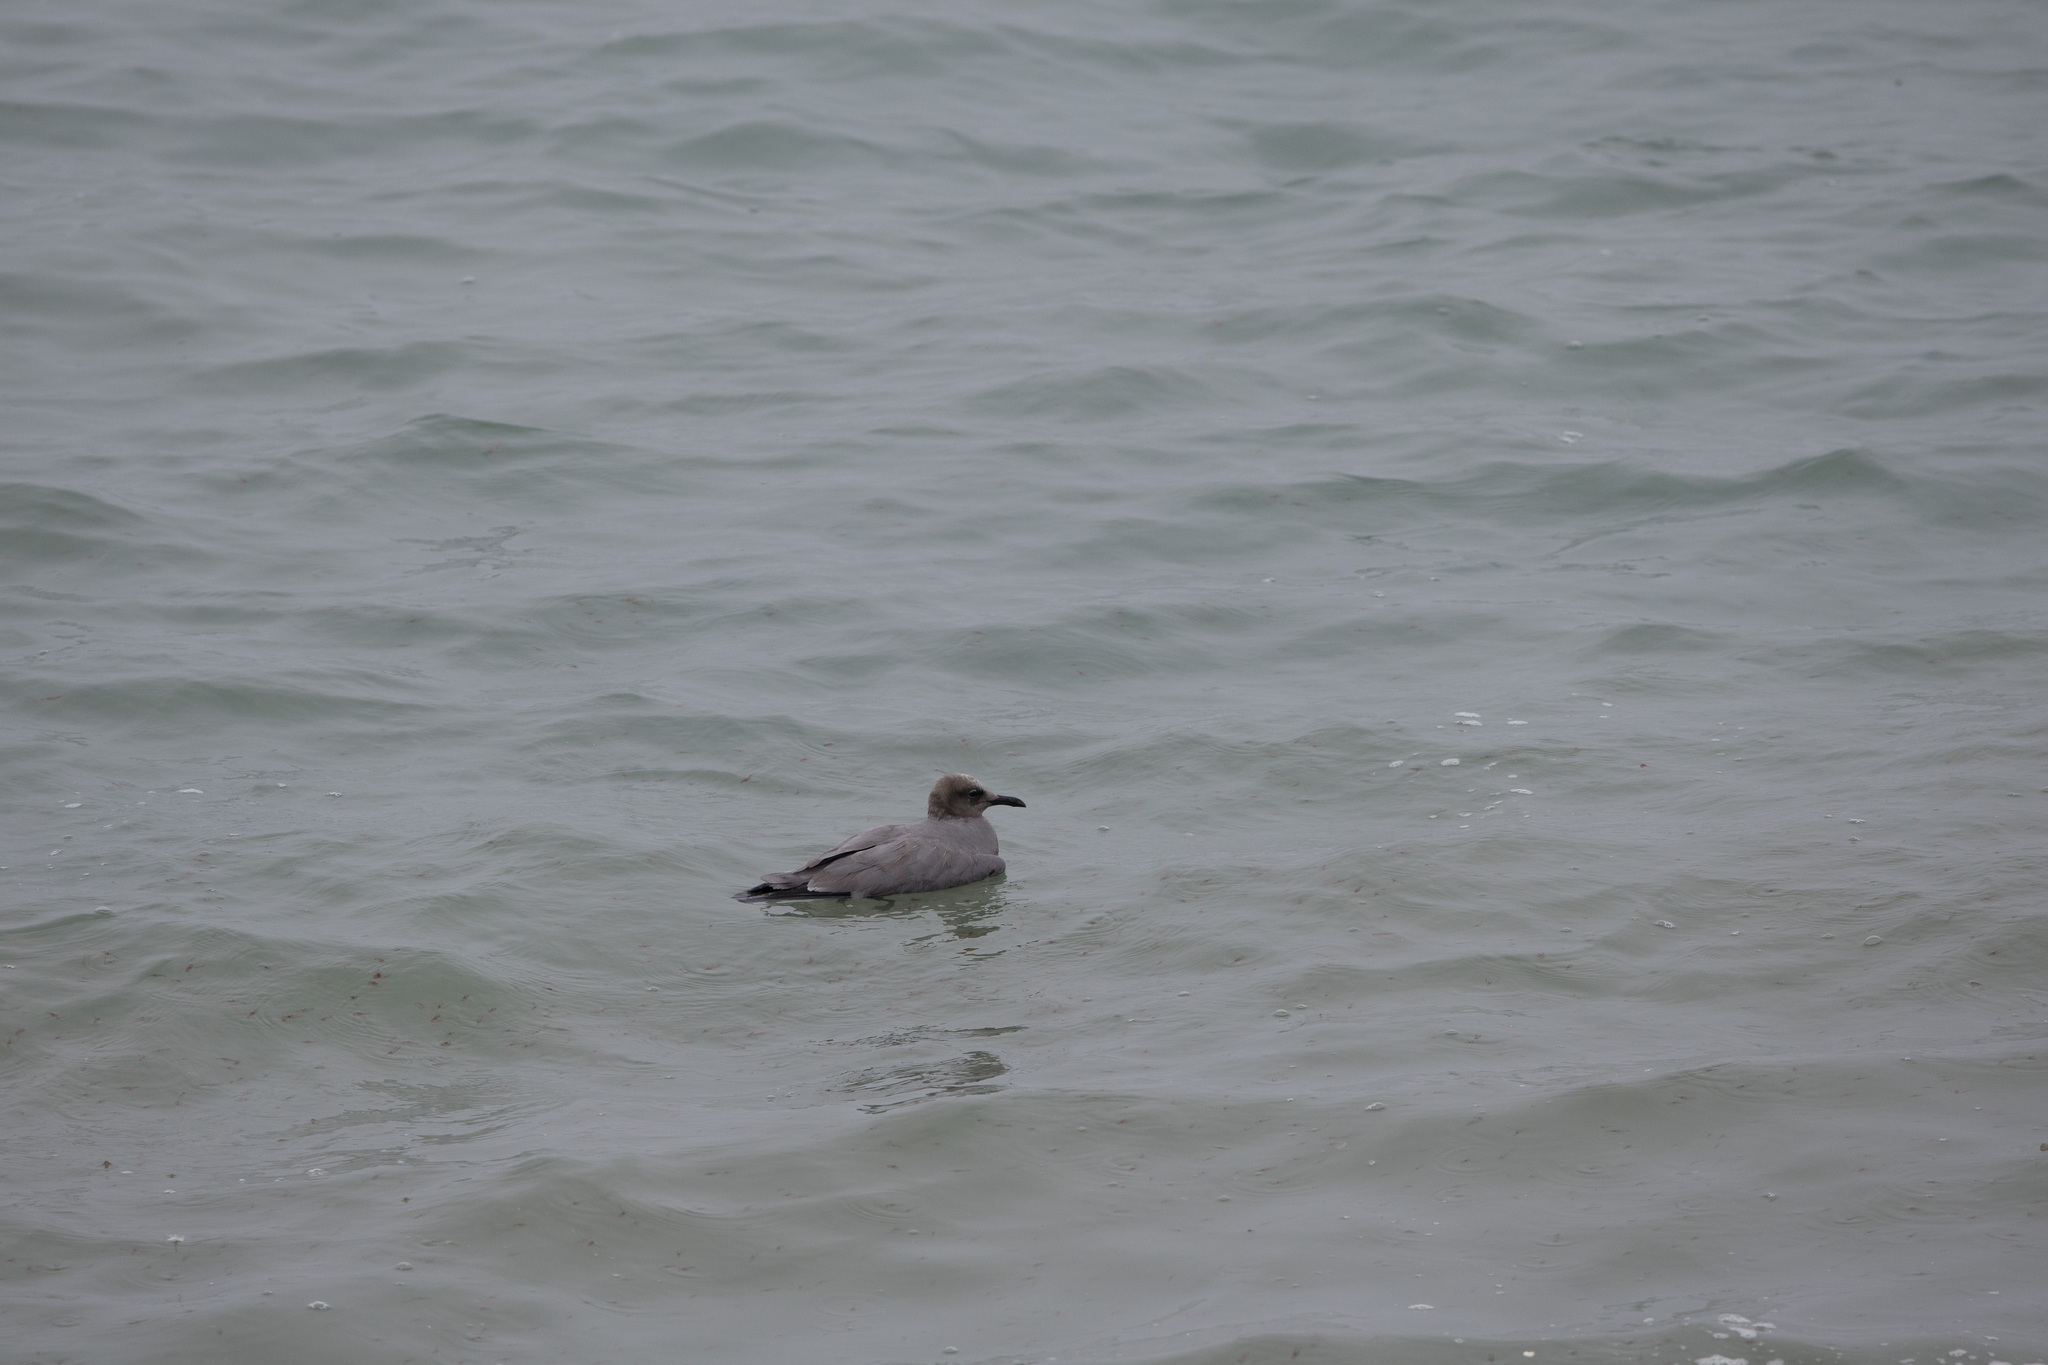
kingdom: Animalia
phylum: Chordata
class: Aves
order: Charadriiformes
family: Laridae
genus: Leucophaeus
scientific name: Leucophaeus modestus
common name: Gray gull
